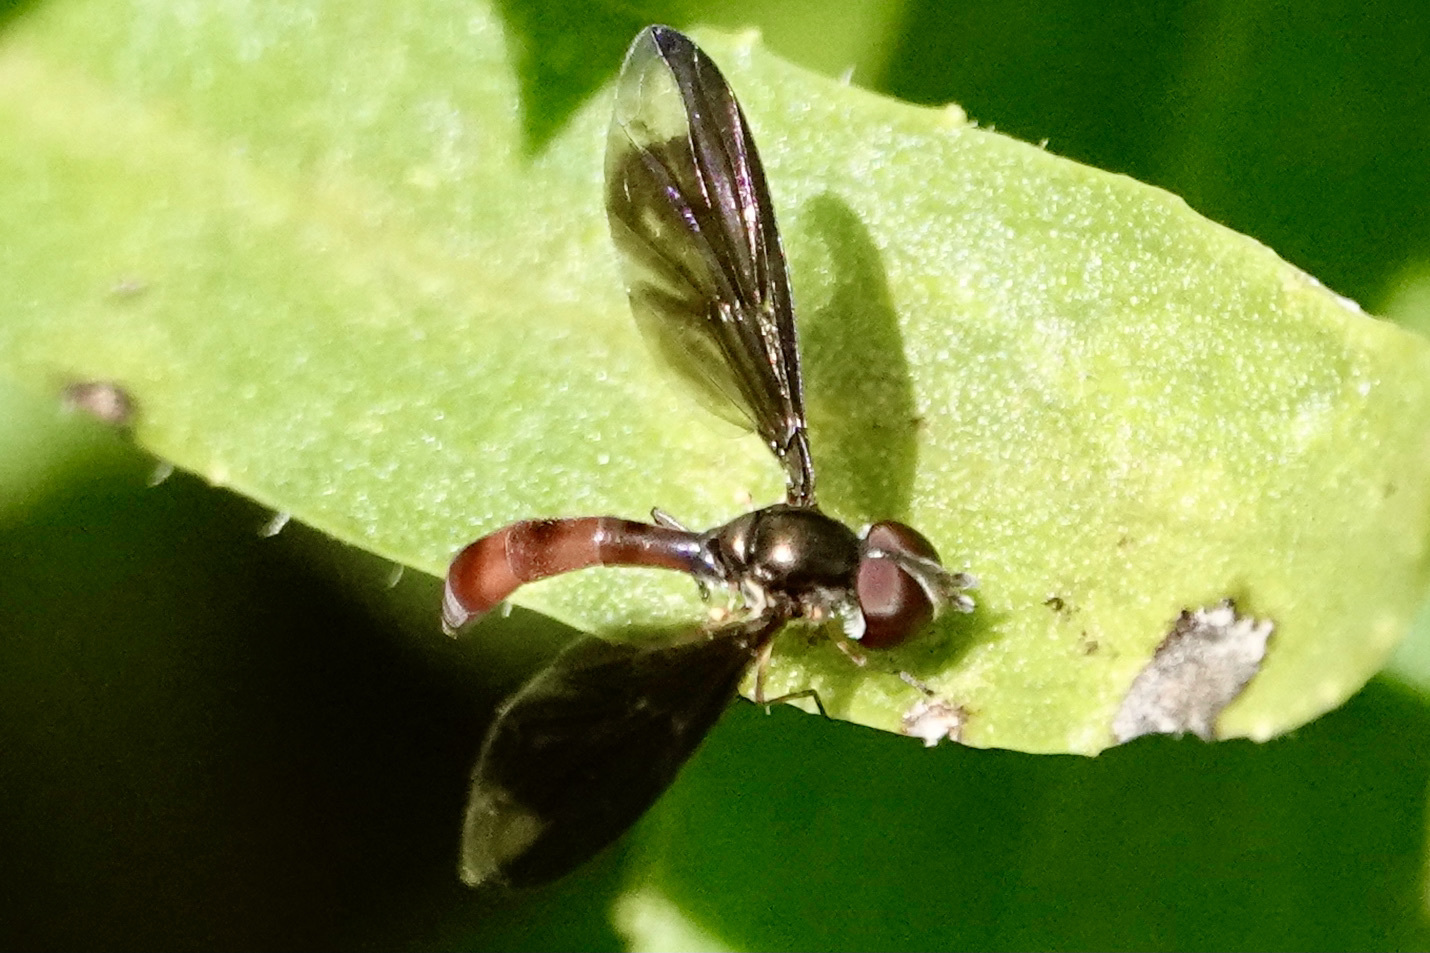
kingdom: Animalia
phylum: Arthropoda
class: Insecta
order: Diptera
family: Syrphidae
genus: Ocyptamus
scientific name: Ocyptamus fuscipennis
